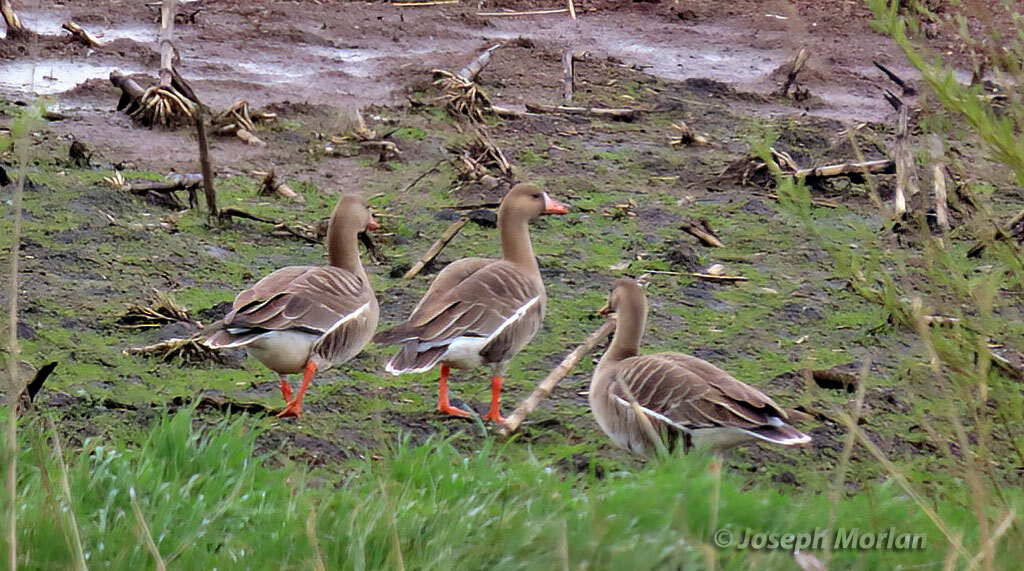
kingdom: Animalia
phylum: Chordata
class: Aves
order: Anseriformes
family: Anatidae
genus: Anser
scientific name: Anser albifrons
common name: Greater white-fronted goose
